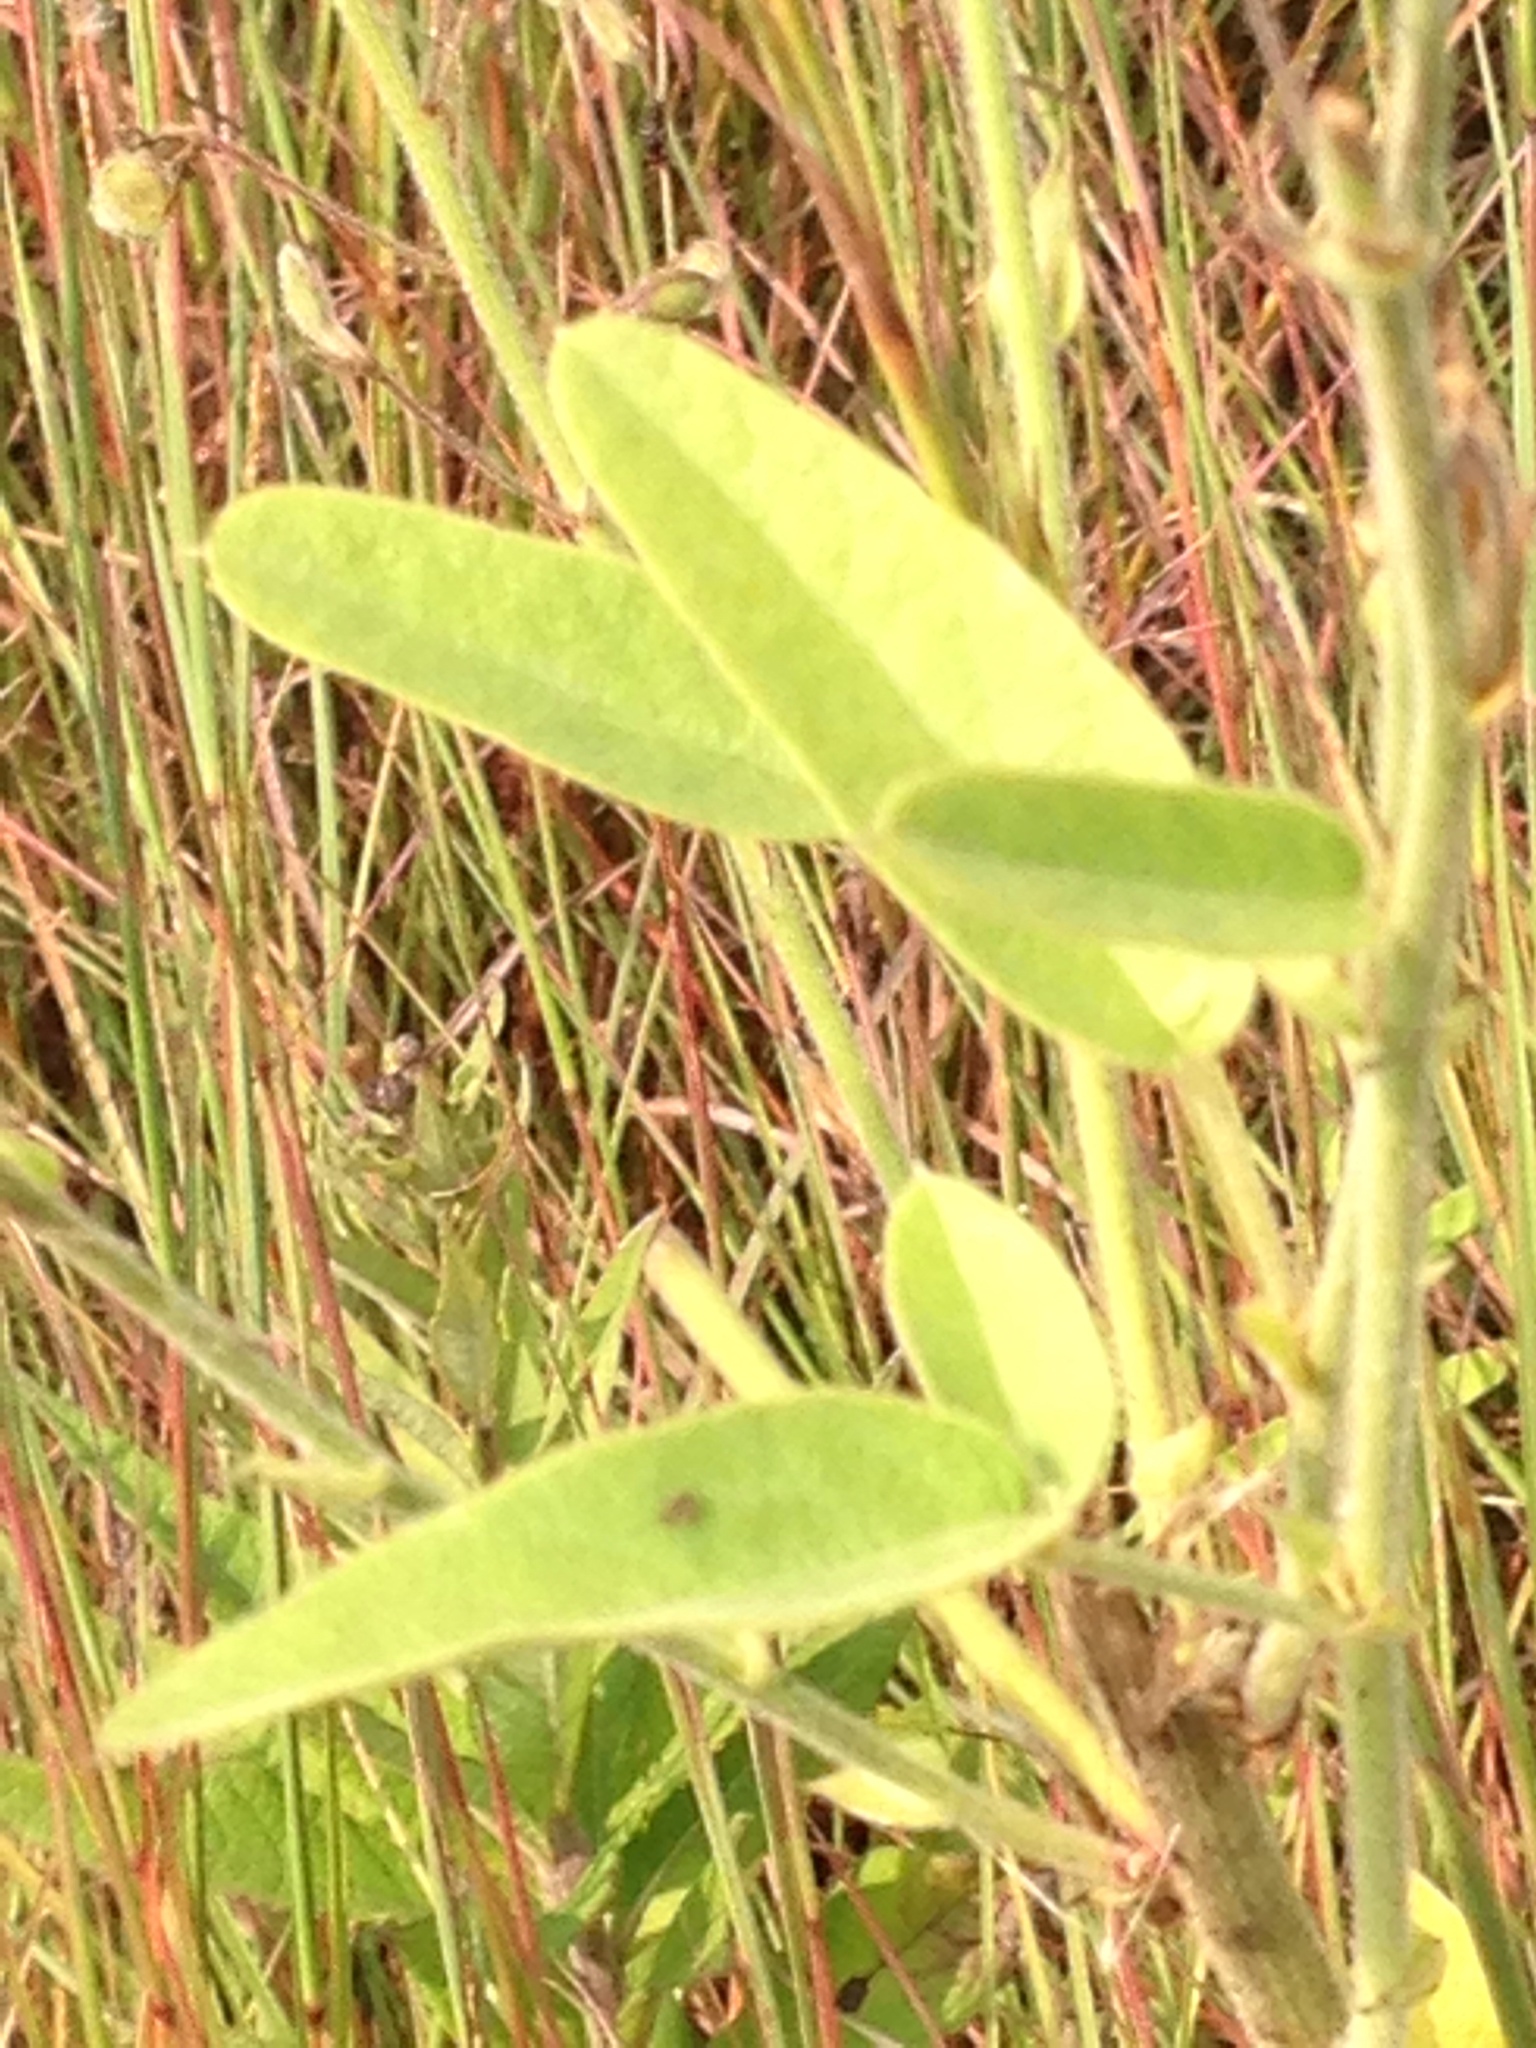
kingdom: Plantae
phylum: Tracheophyta
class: Magnoliopsida
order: Fabales
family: Fabaceae
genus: Desmodium
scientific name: Desmodium illinoense
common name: Illinois tick-clover
